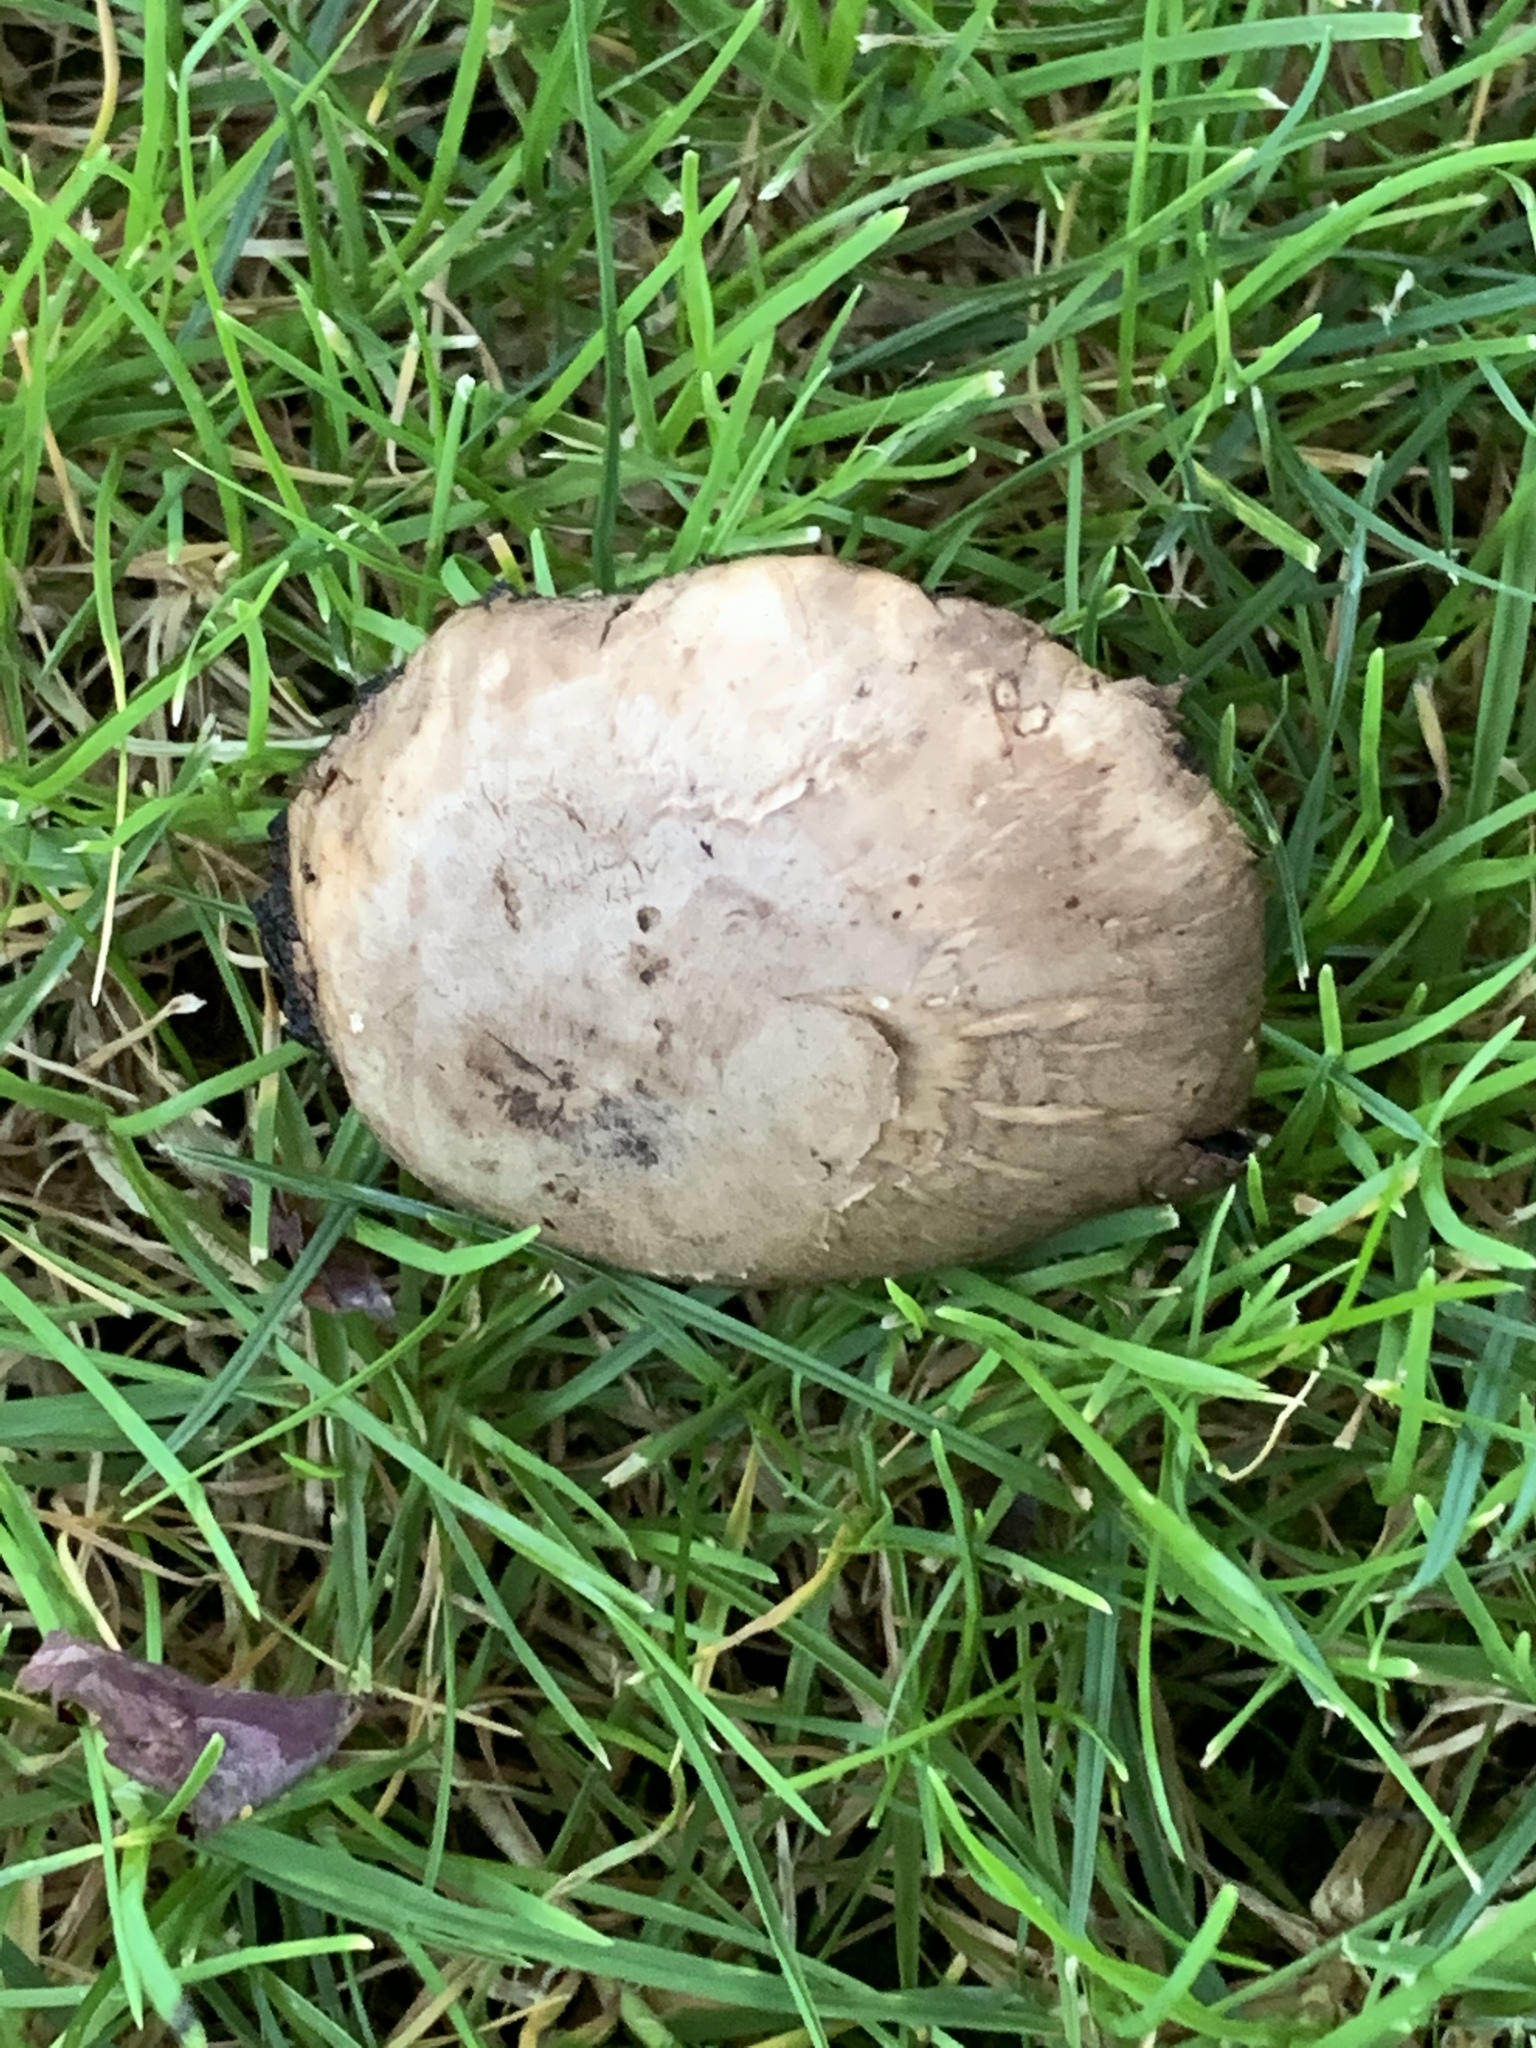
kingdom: Fungi
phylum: Basidiomycota
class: Agaricomycetes
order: Agaricales
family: Agaricaceae
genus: Agaricus
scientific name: Agaricus californicus
